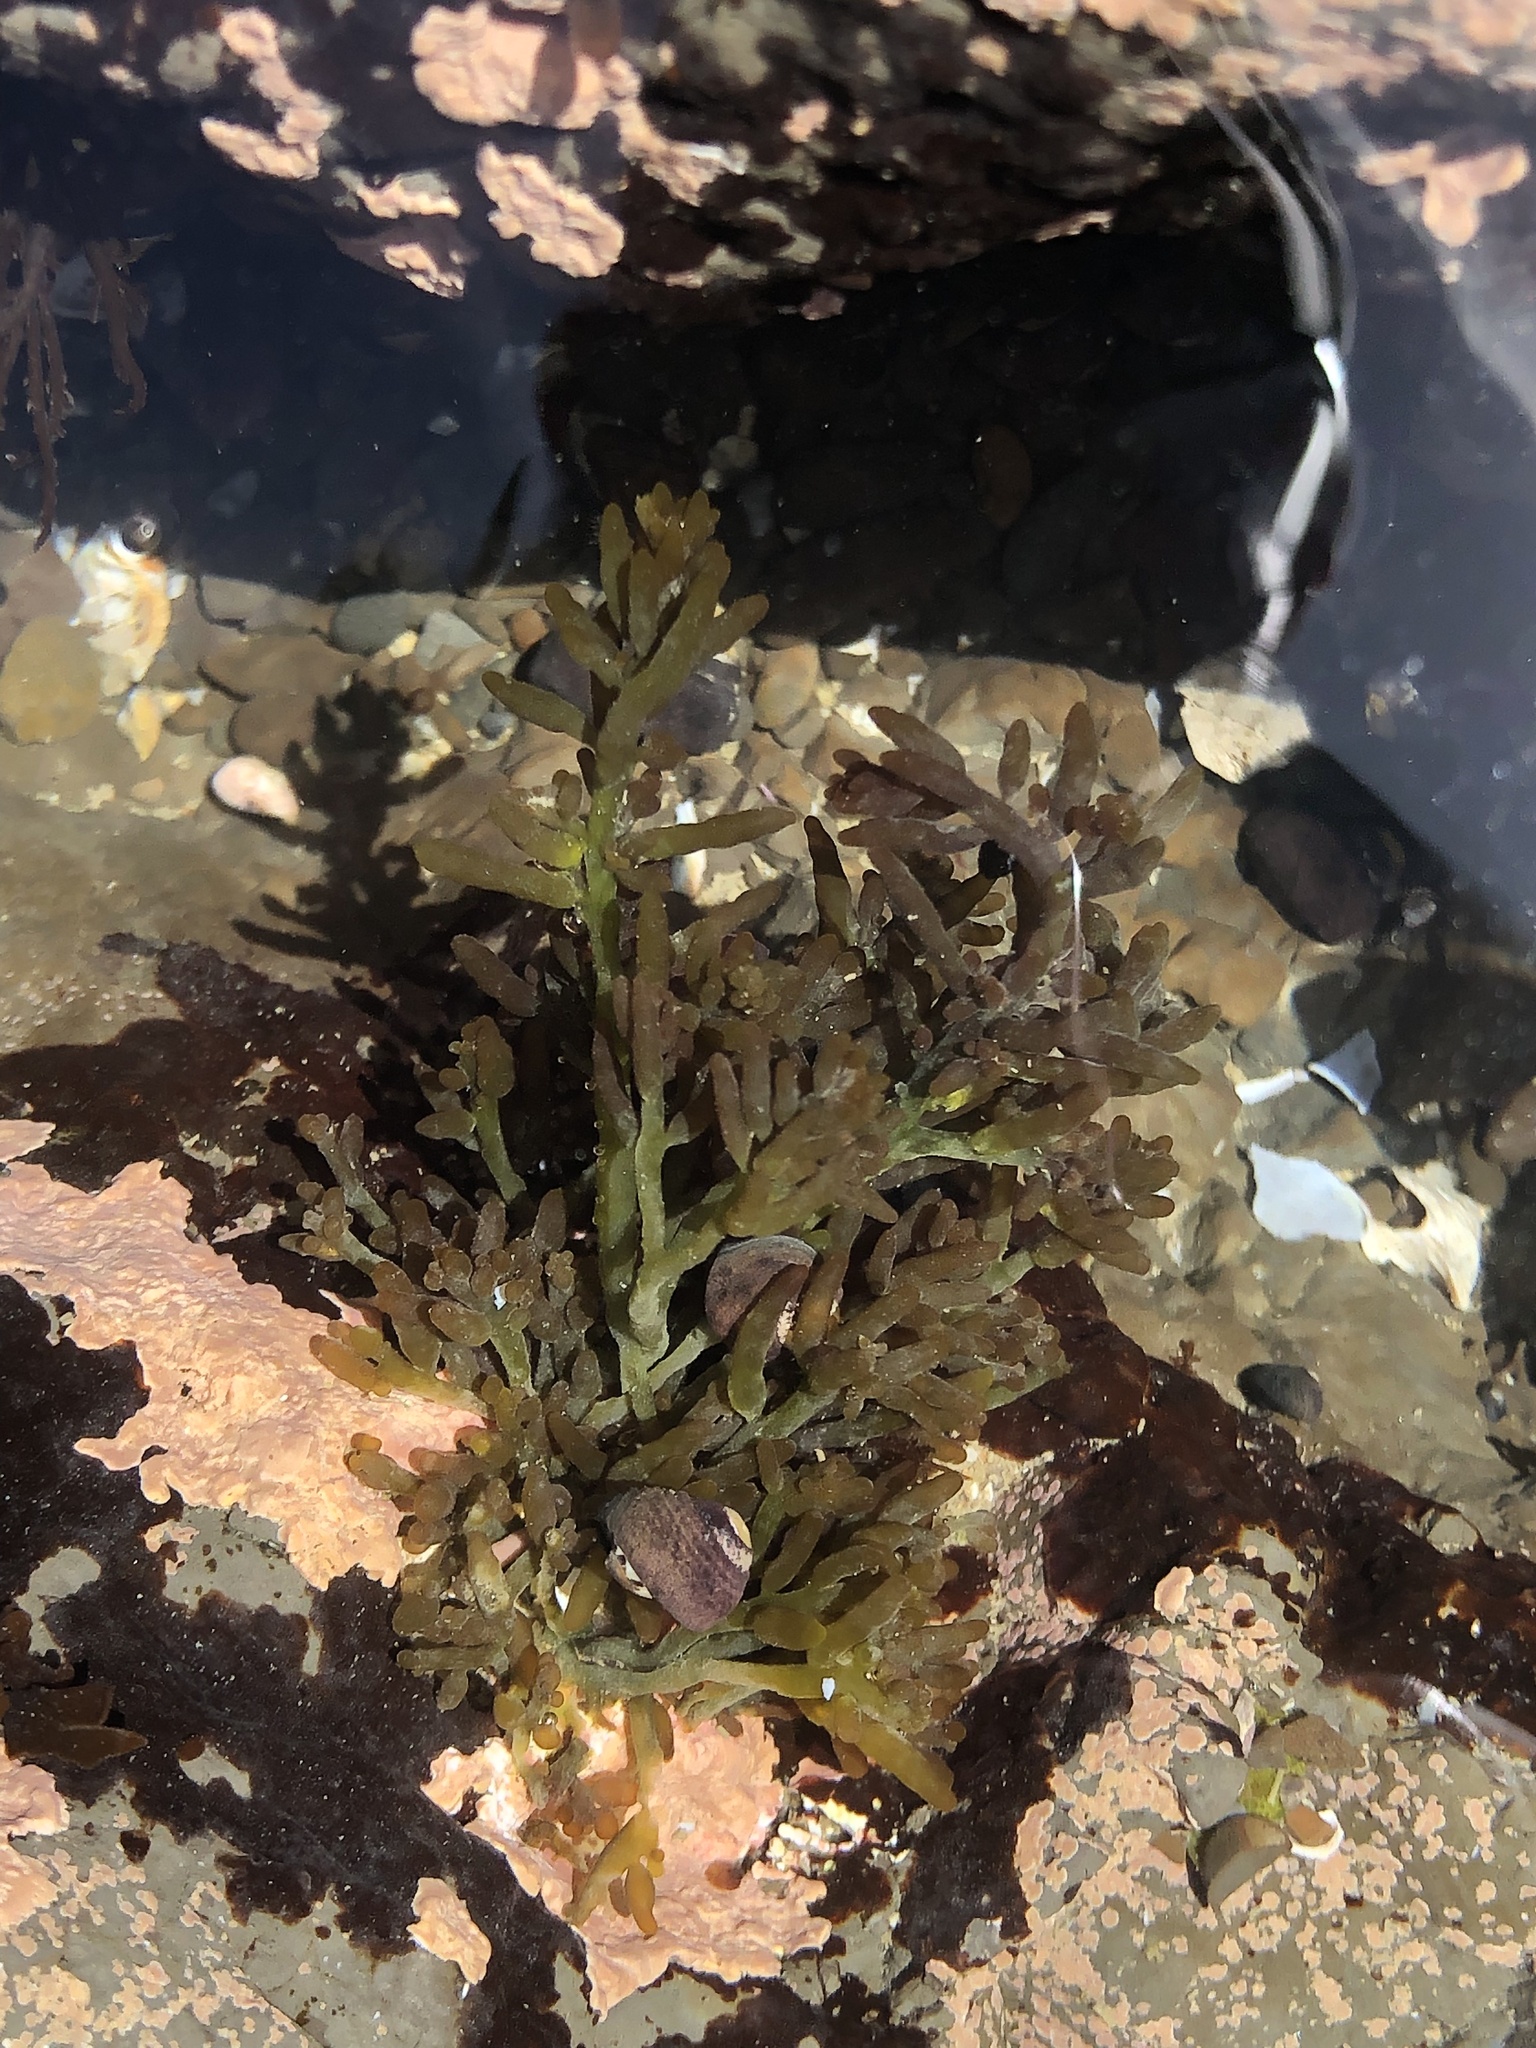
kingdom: Plantae
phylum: Rhodophyta
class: Florideophyceae
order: Rhodymeniales
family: Champiaceae
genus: Neogastroclonium
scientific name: Neogastroclonium subarticulatum
